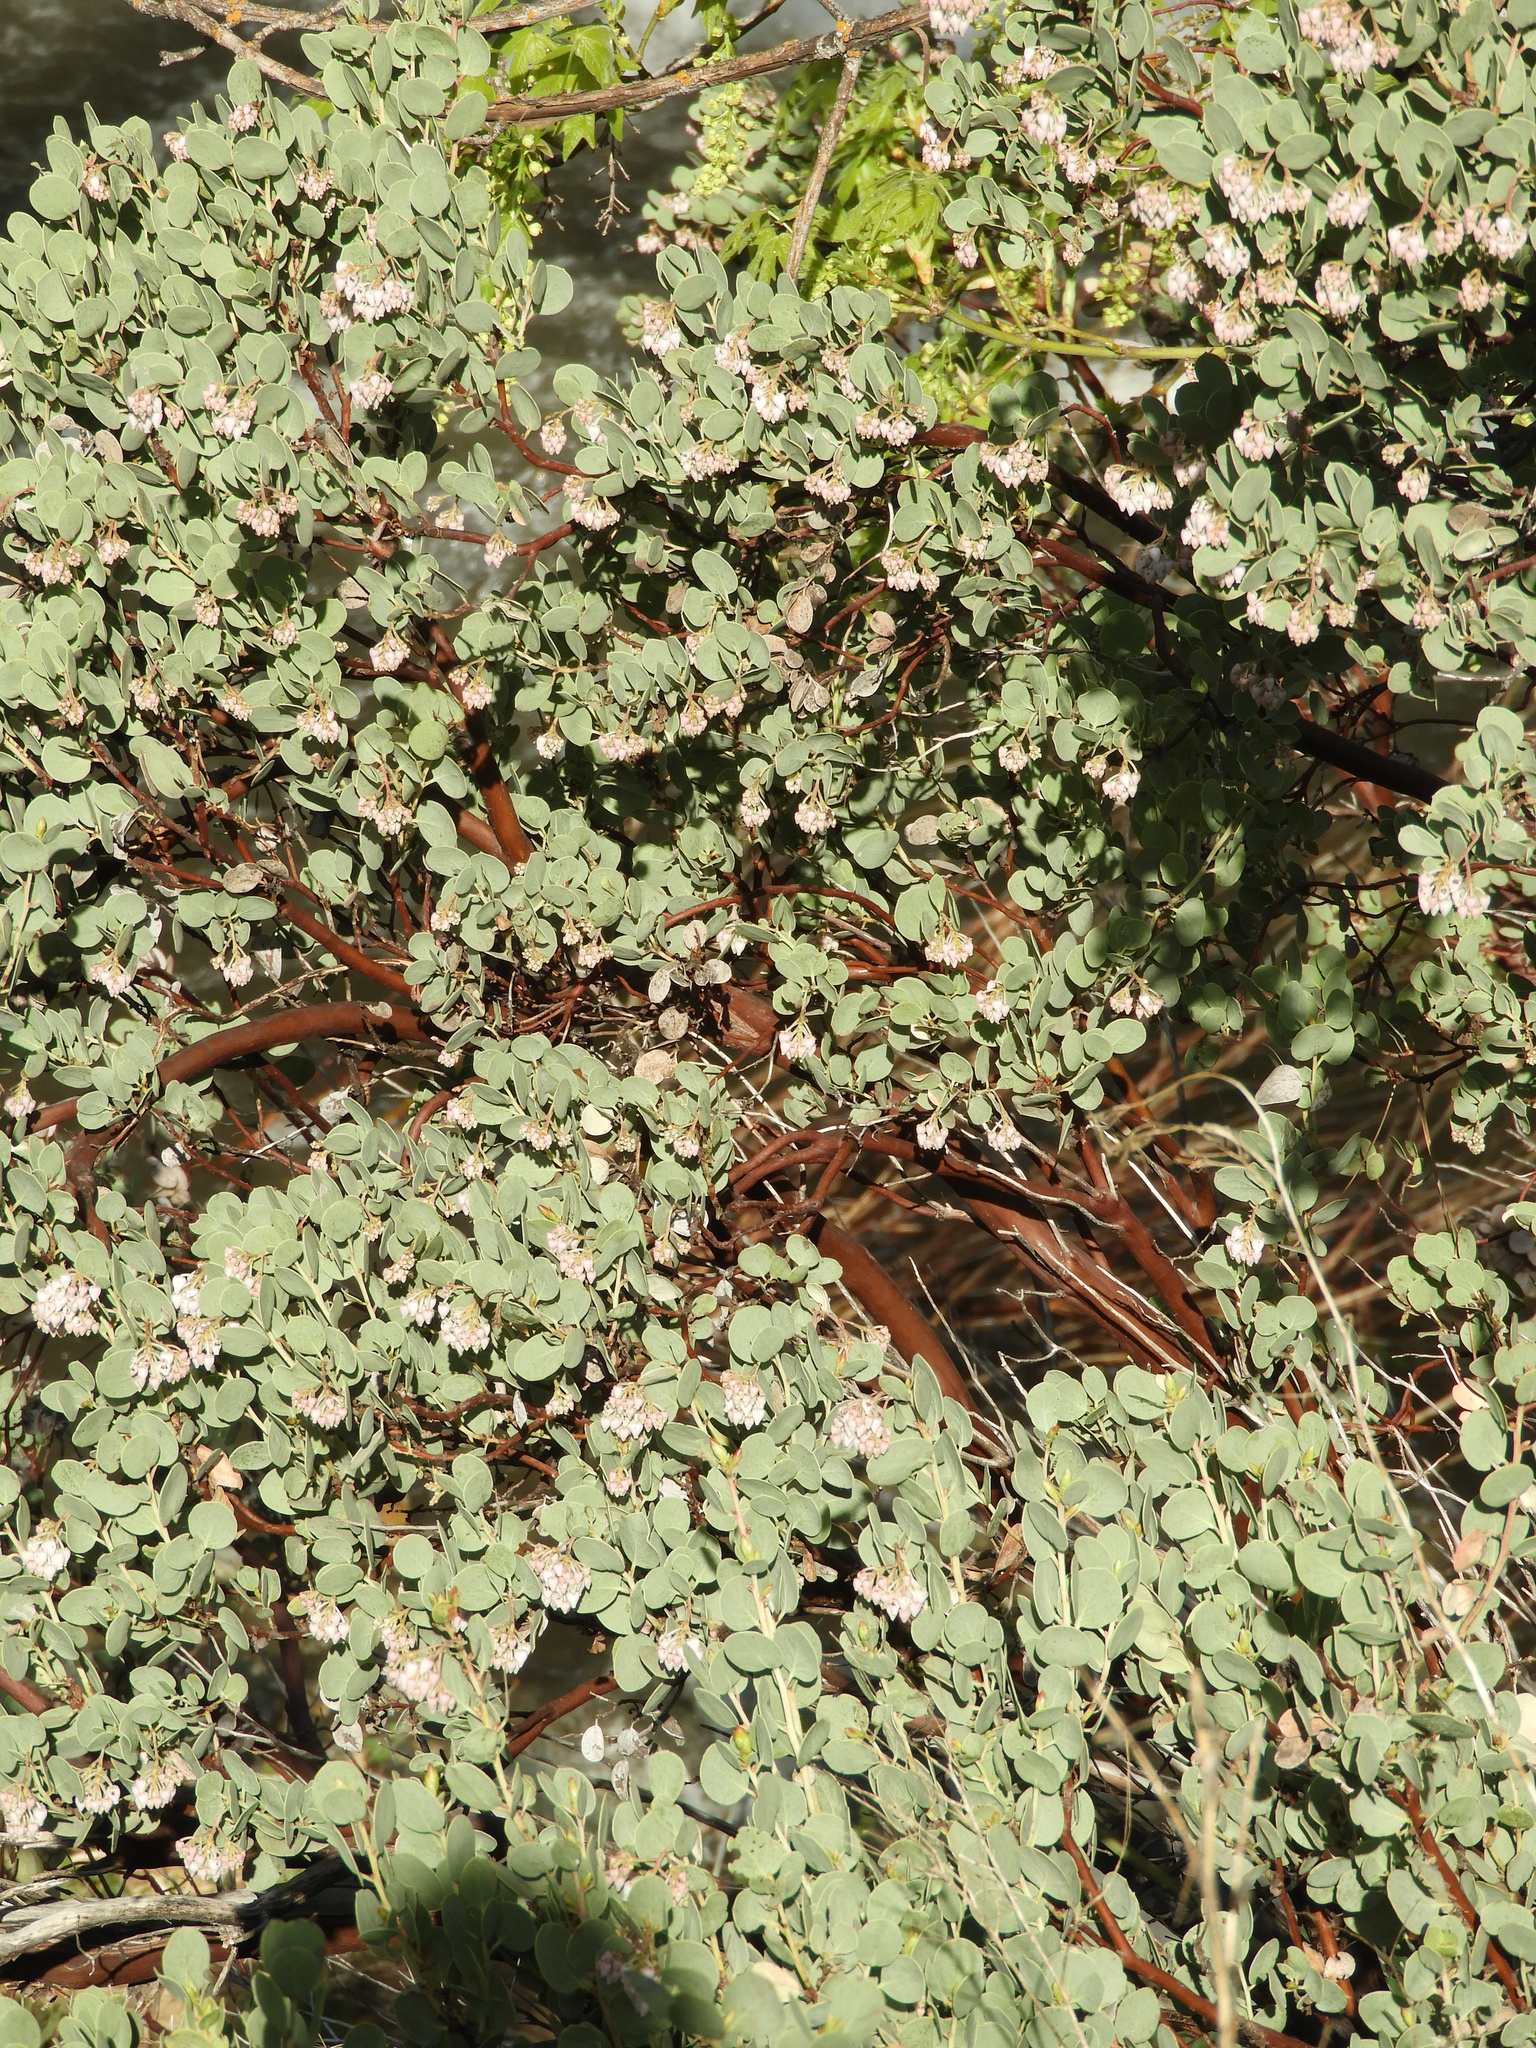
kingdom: Plantae
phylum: Tracheophyta
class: Magnoliopsida
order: Ericales
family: Ericaceae
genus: Arctostaphylos
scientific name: Arctostaphylos viscida
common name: White-leaf manzanita
